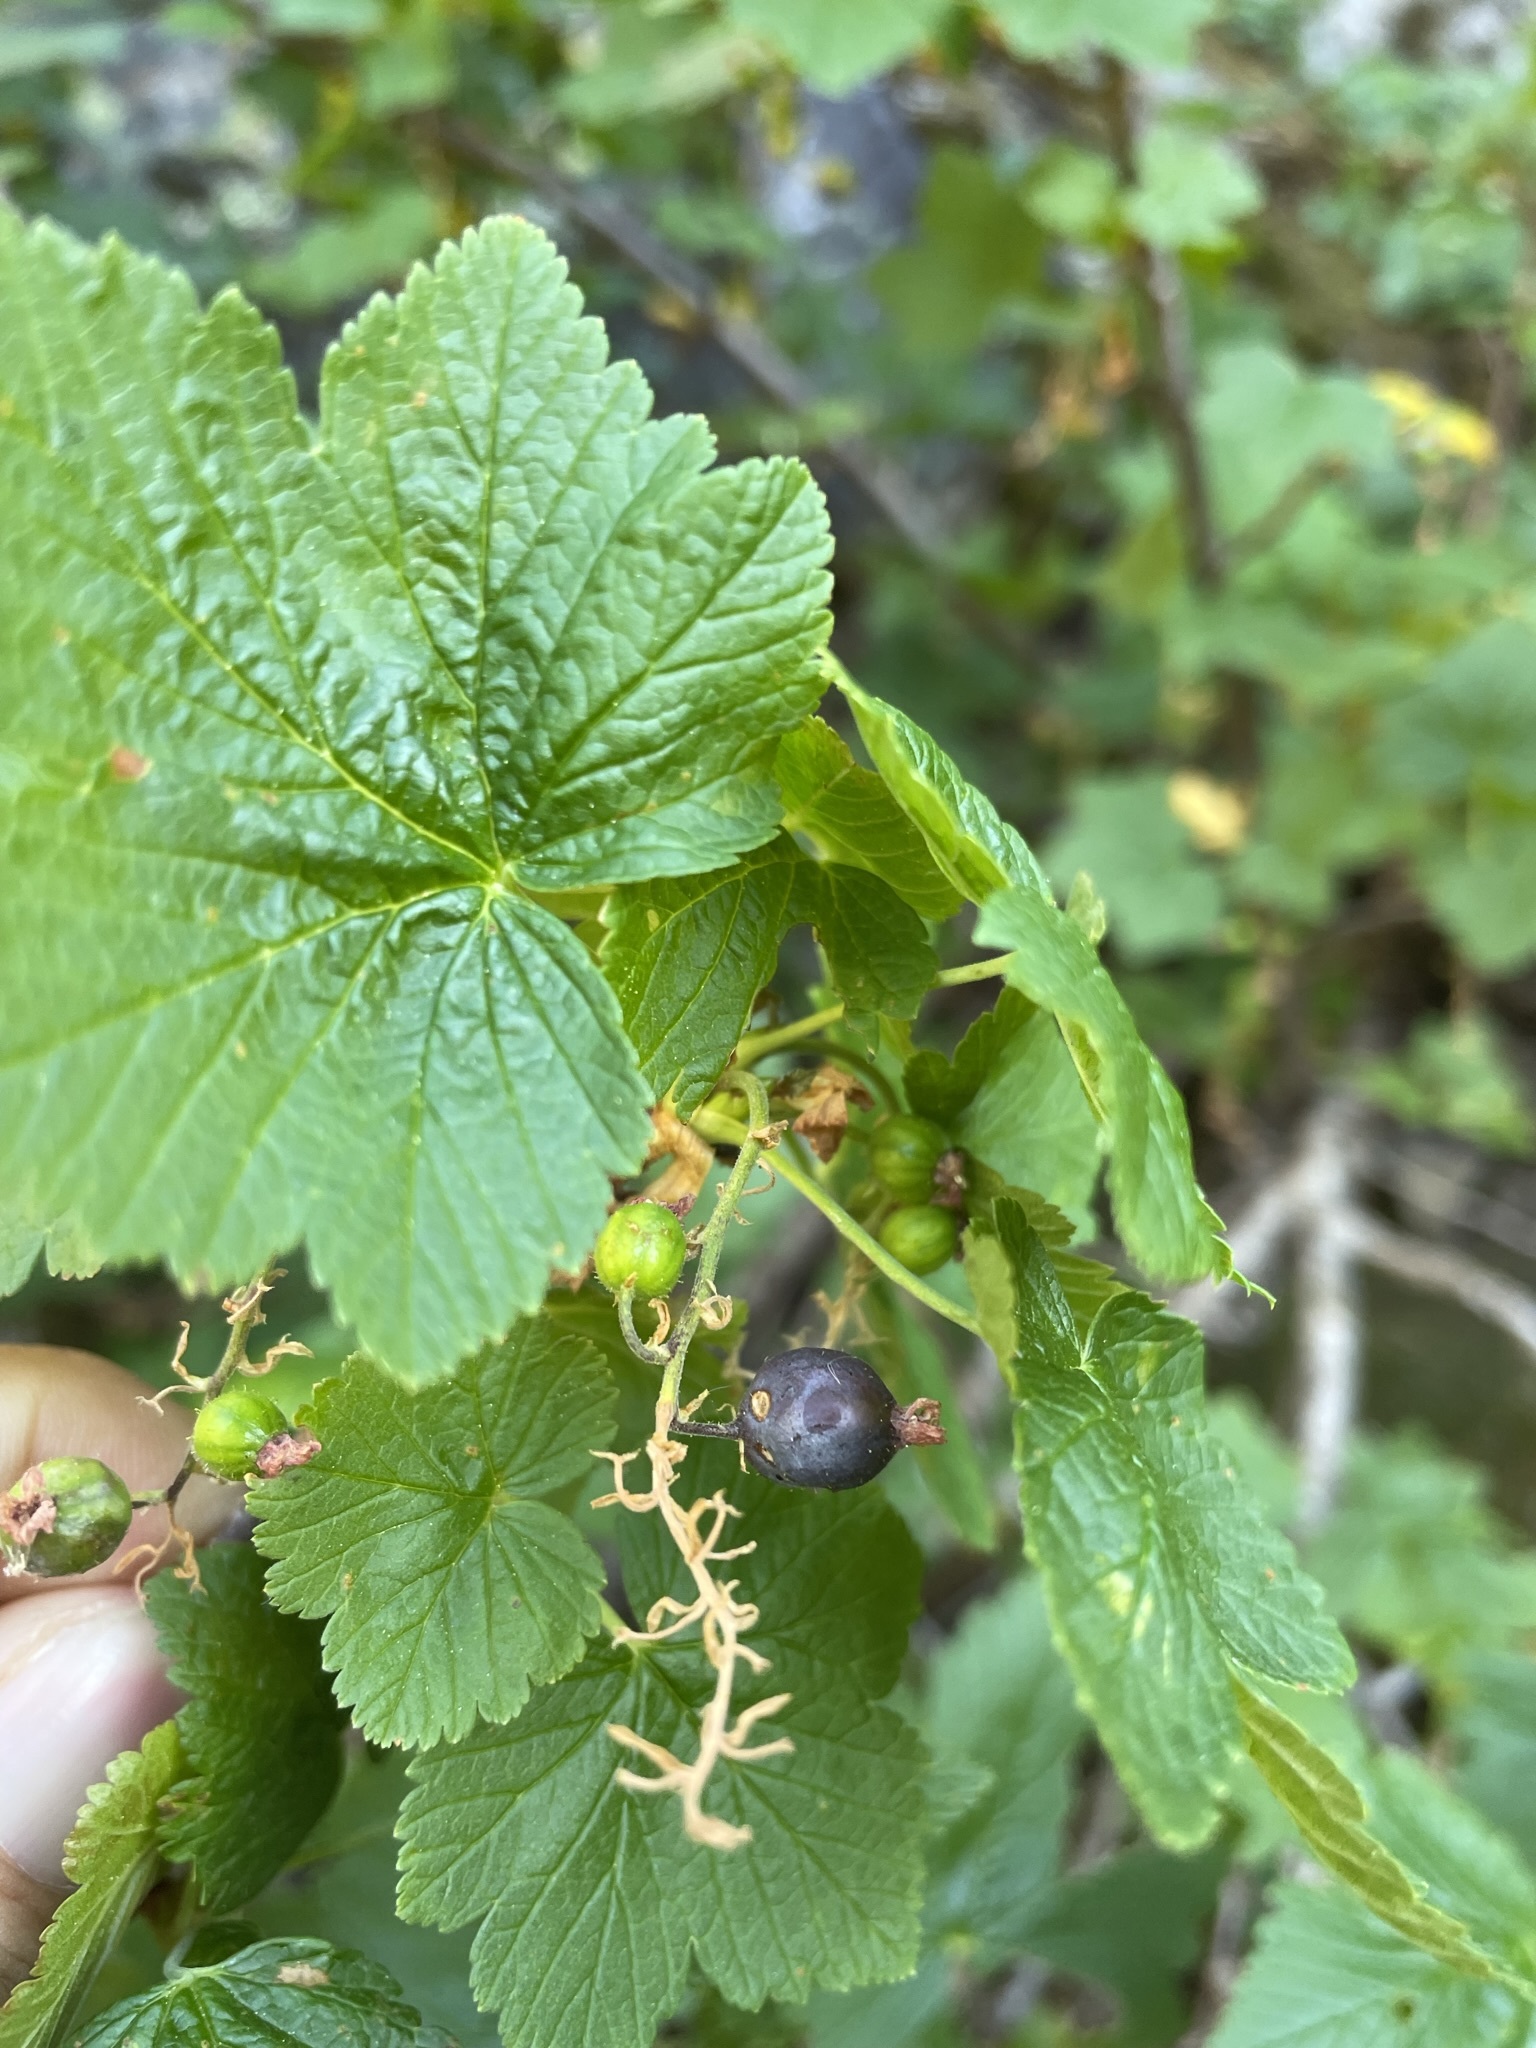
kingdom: Plantae
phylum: Tracheophyta
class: Magnoliopsida
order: Saxifragales
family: Grossulariaceae
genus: Ribes
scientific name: Ribes acerifolium
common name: Maple-leaved black currant
